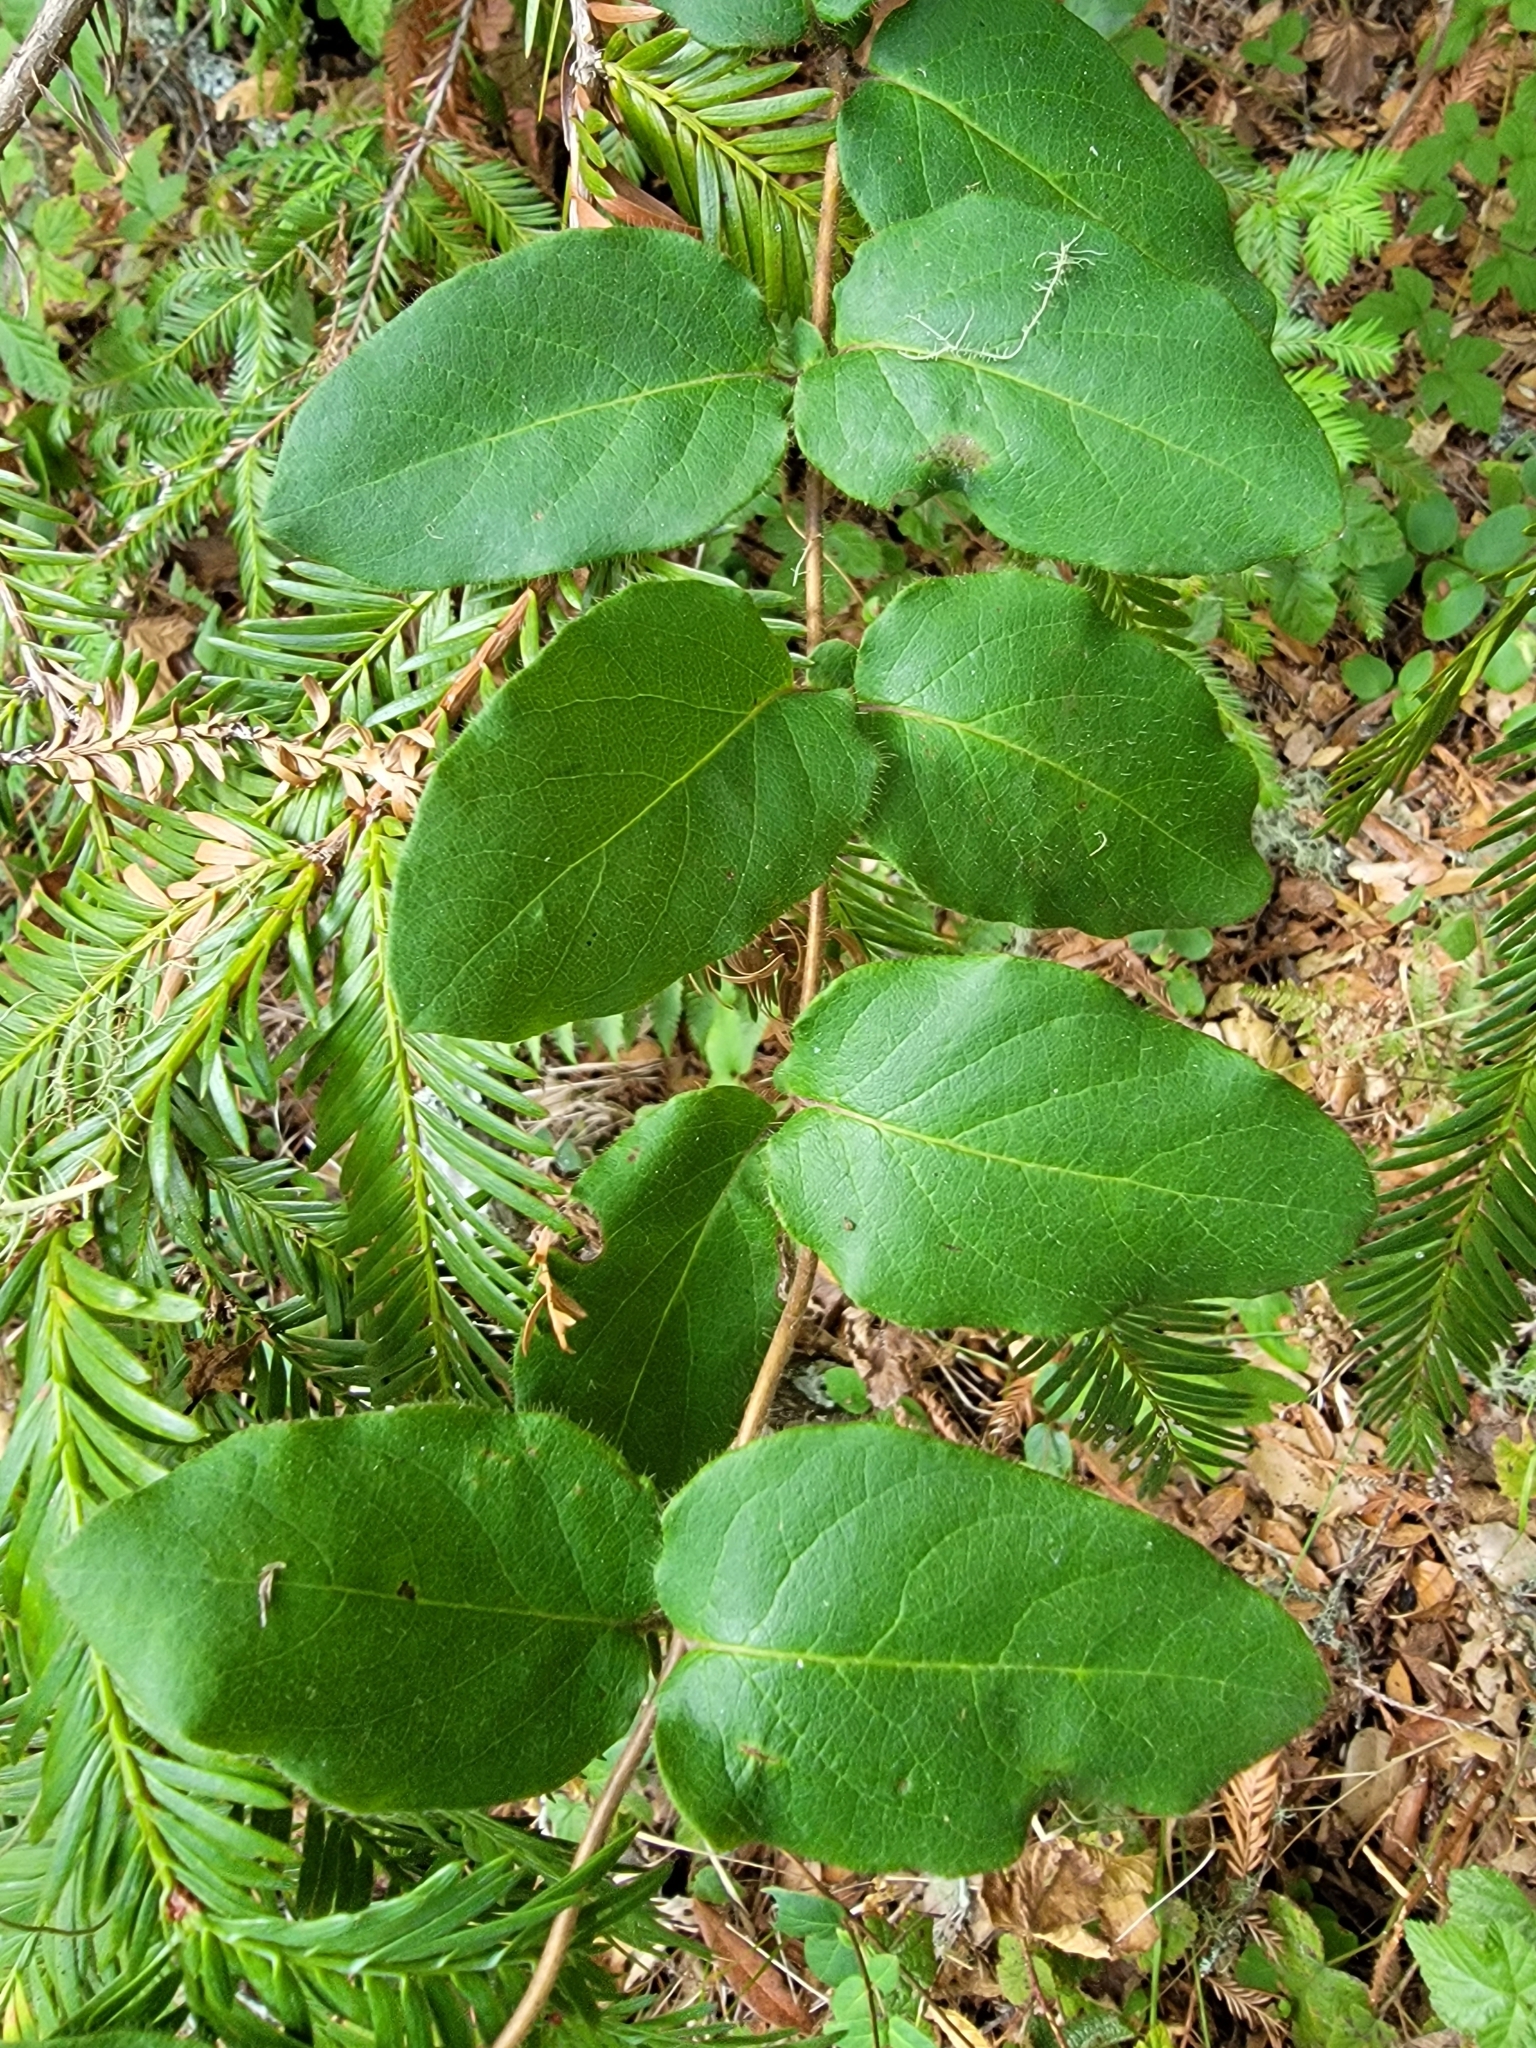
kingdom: Plantae
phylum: Tracheophyta
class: Magnoliopsida
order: Dipsacales
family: Caprifoliaceae
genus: Lonicera
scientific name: Lonicera hispidula
